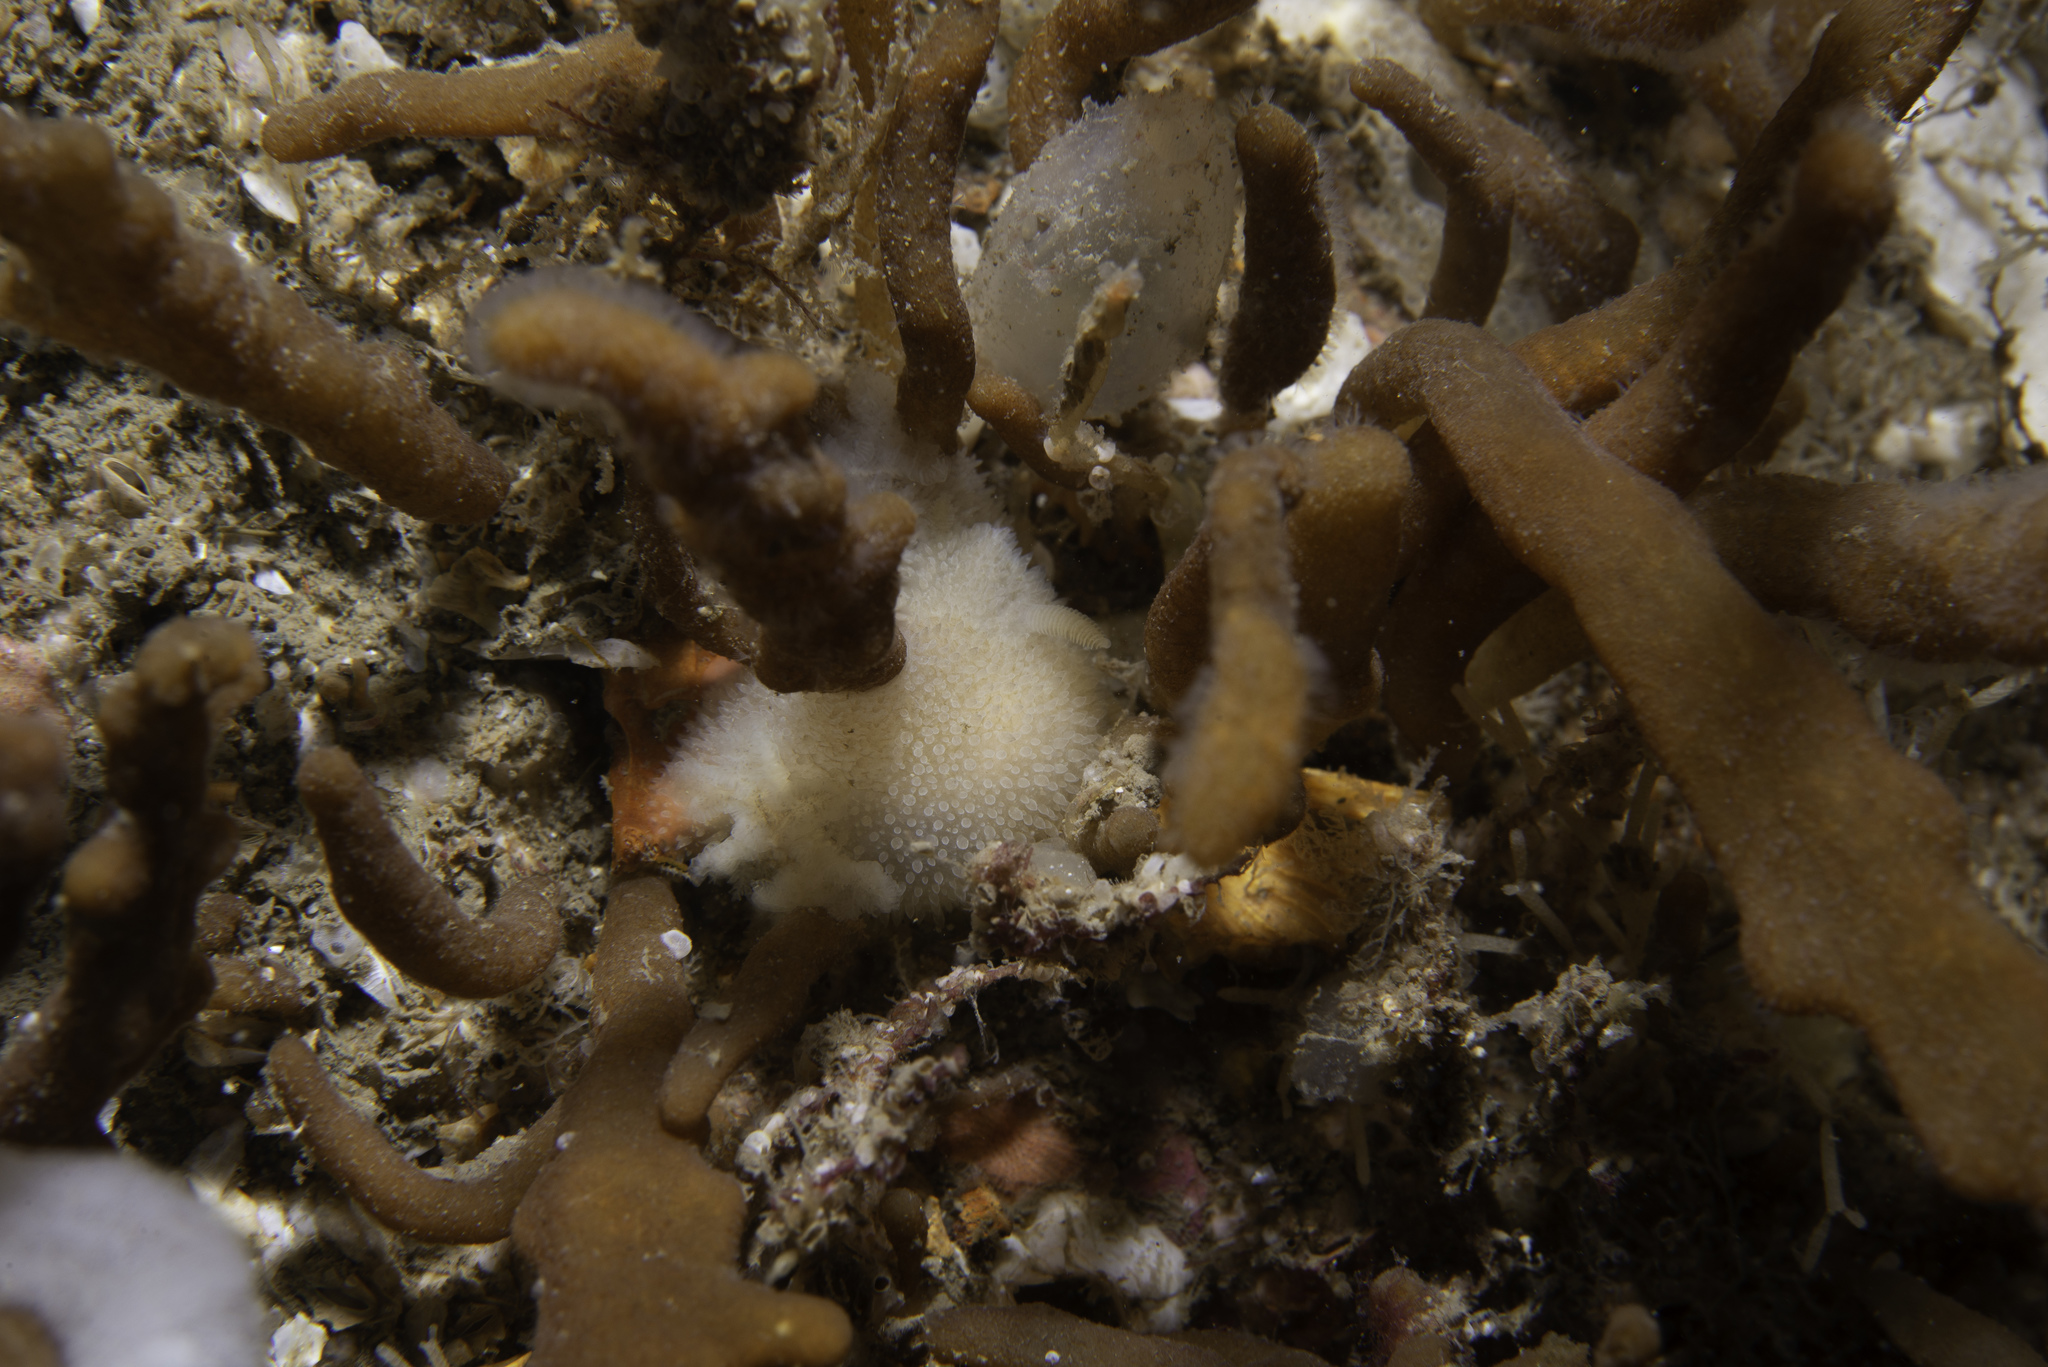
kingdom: Animalia
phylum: Mollusca
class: Gastropoda
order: Nudibranchia
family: Onchidorididae
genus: Acanthodoris
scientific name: Acanthodoris pilosa
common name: Hairy spiny doris
